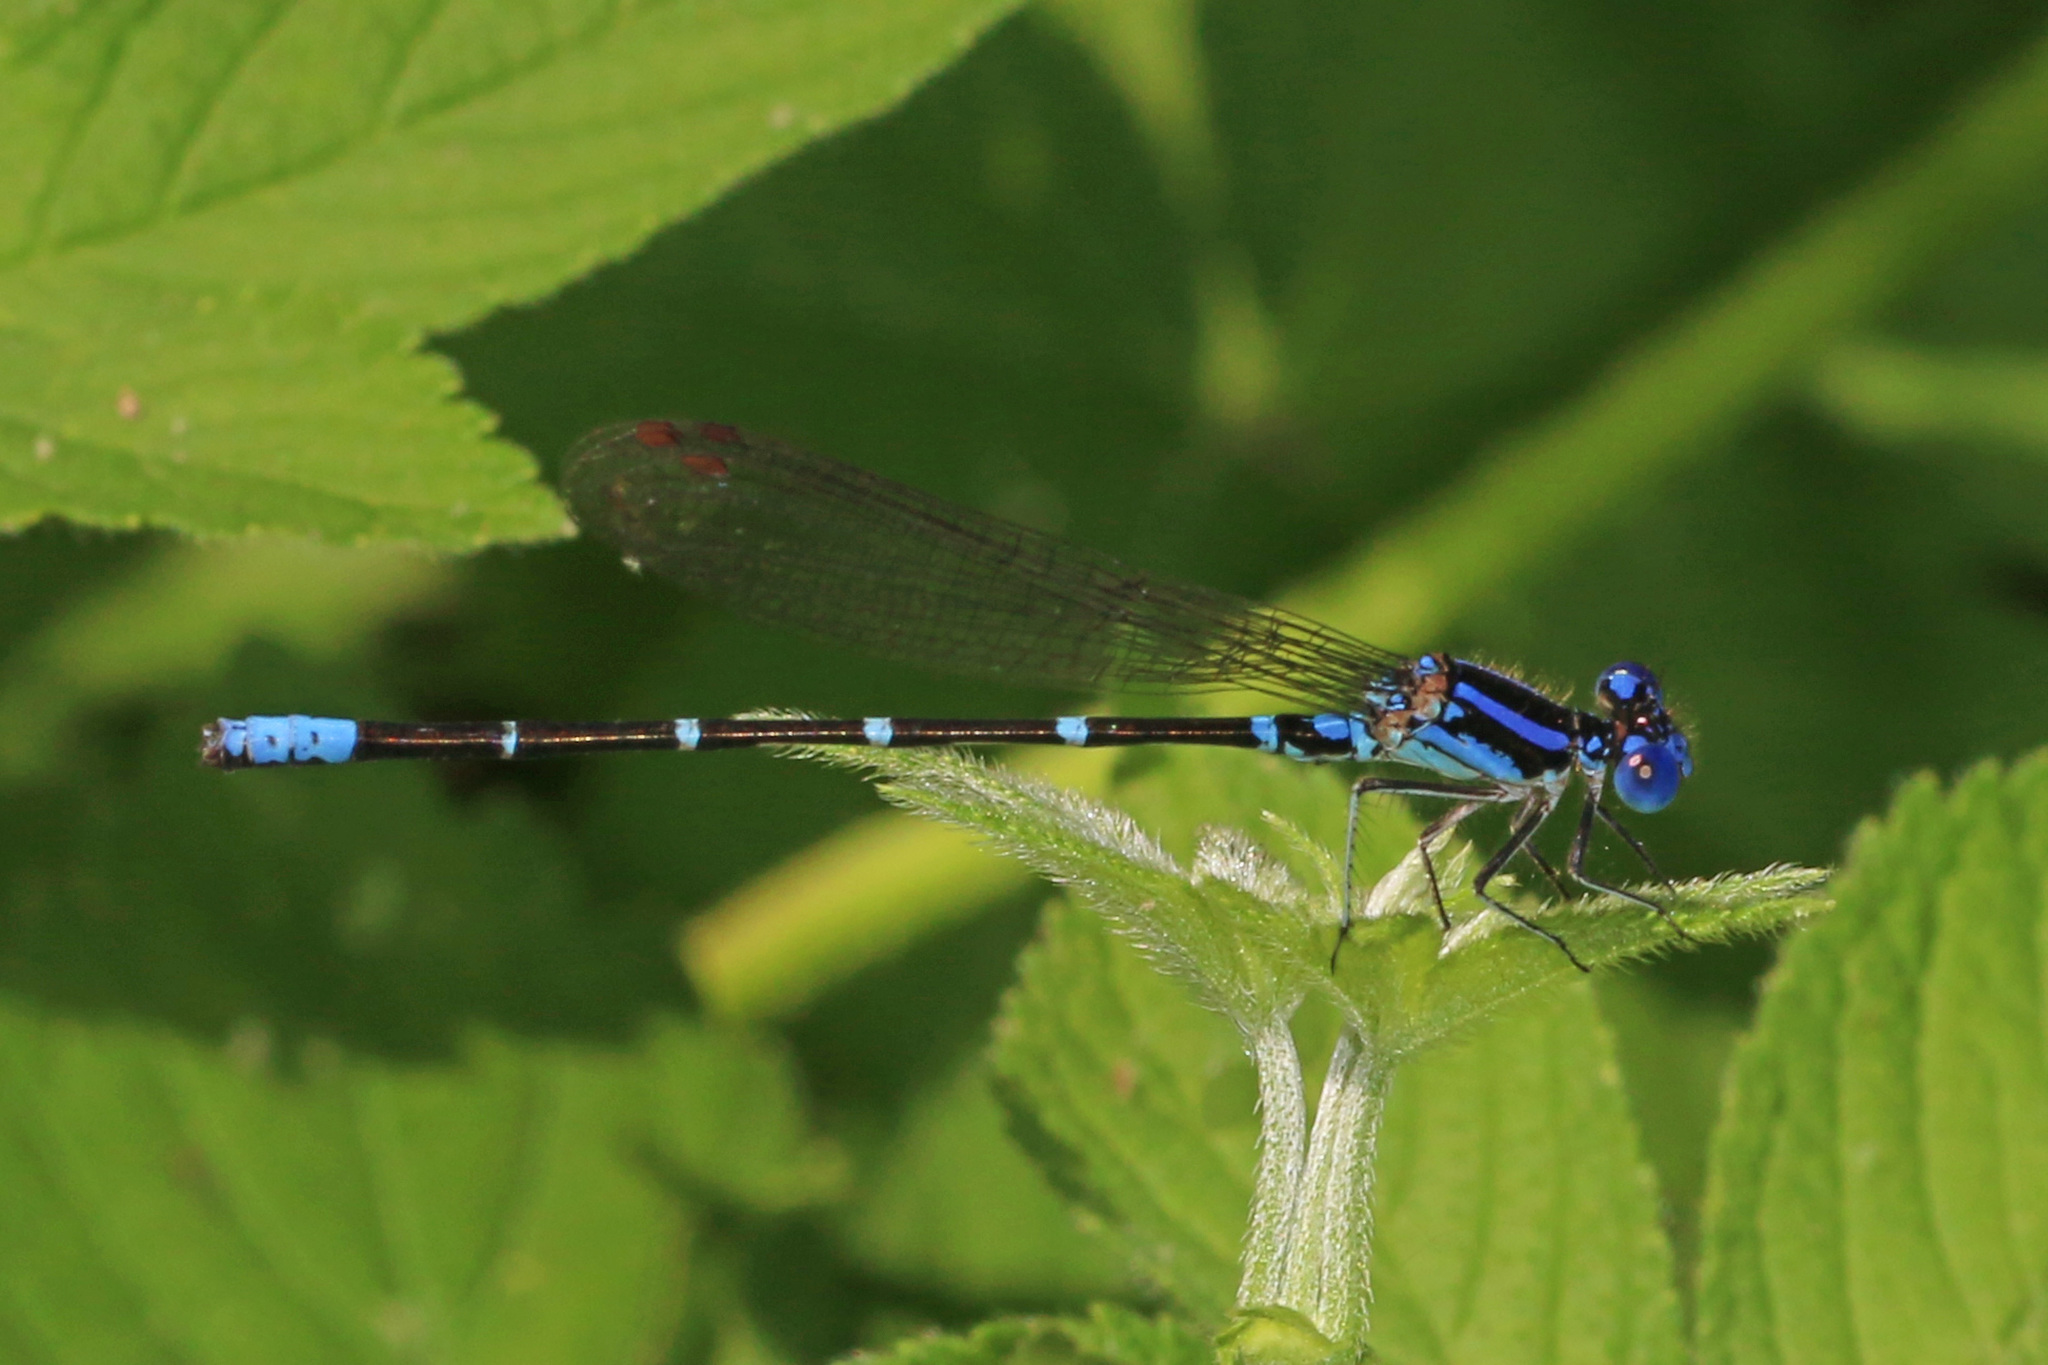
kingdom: Animalia
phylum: Arthropoda
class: Insecta
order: Odonata
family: Coenagrionidae
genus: Argia
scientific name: Argia sedula
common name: Blue-ringed dancer
